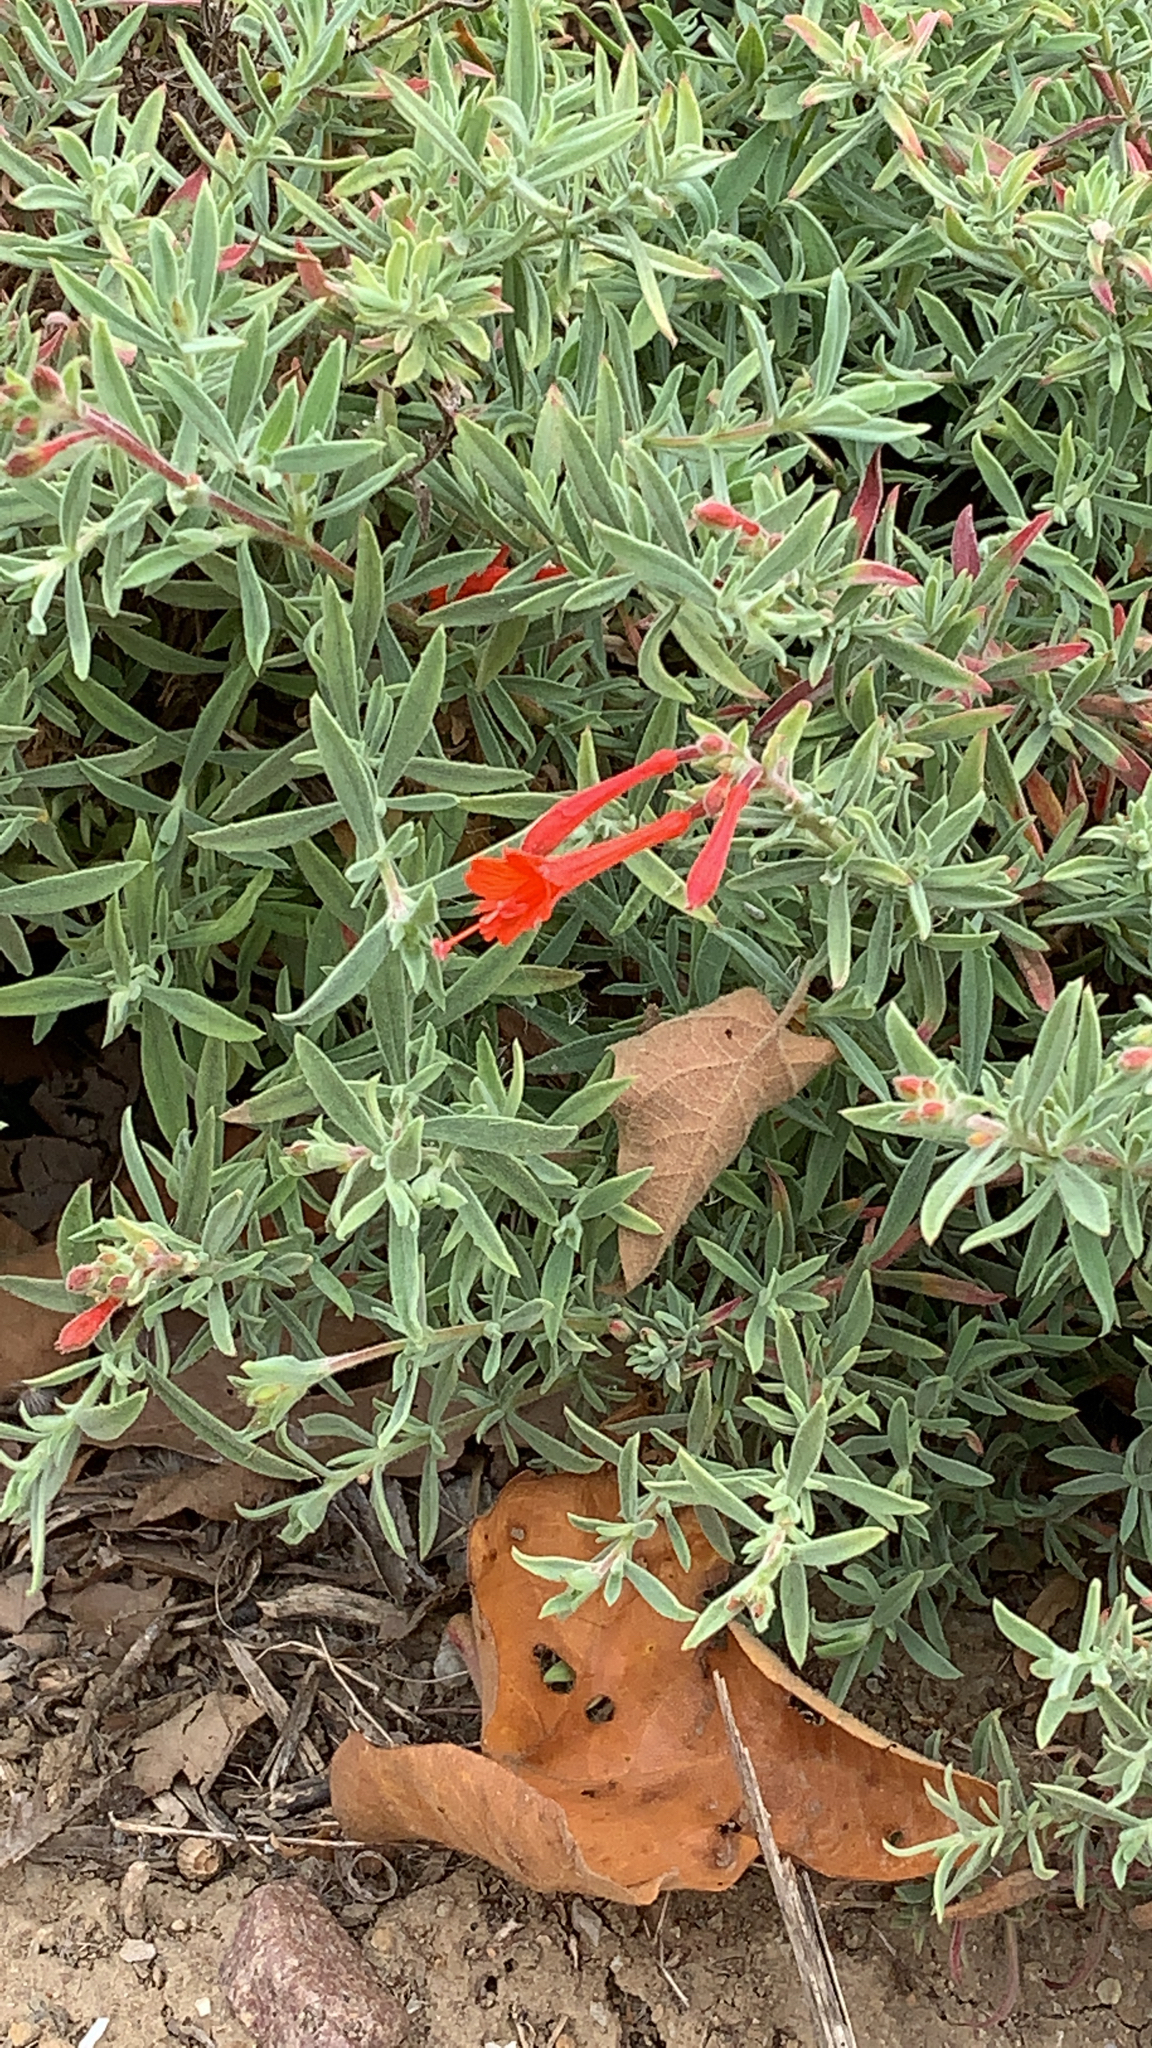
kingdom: Plantae
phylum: Tracheophyta
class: Magnoliopsida
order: Myrtales
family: Onagraceae
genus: Epilobium
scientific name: Epilobium canum
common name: California-fuchsia
